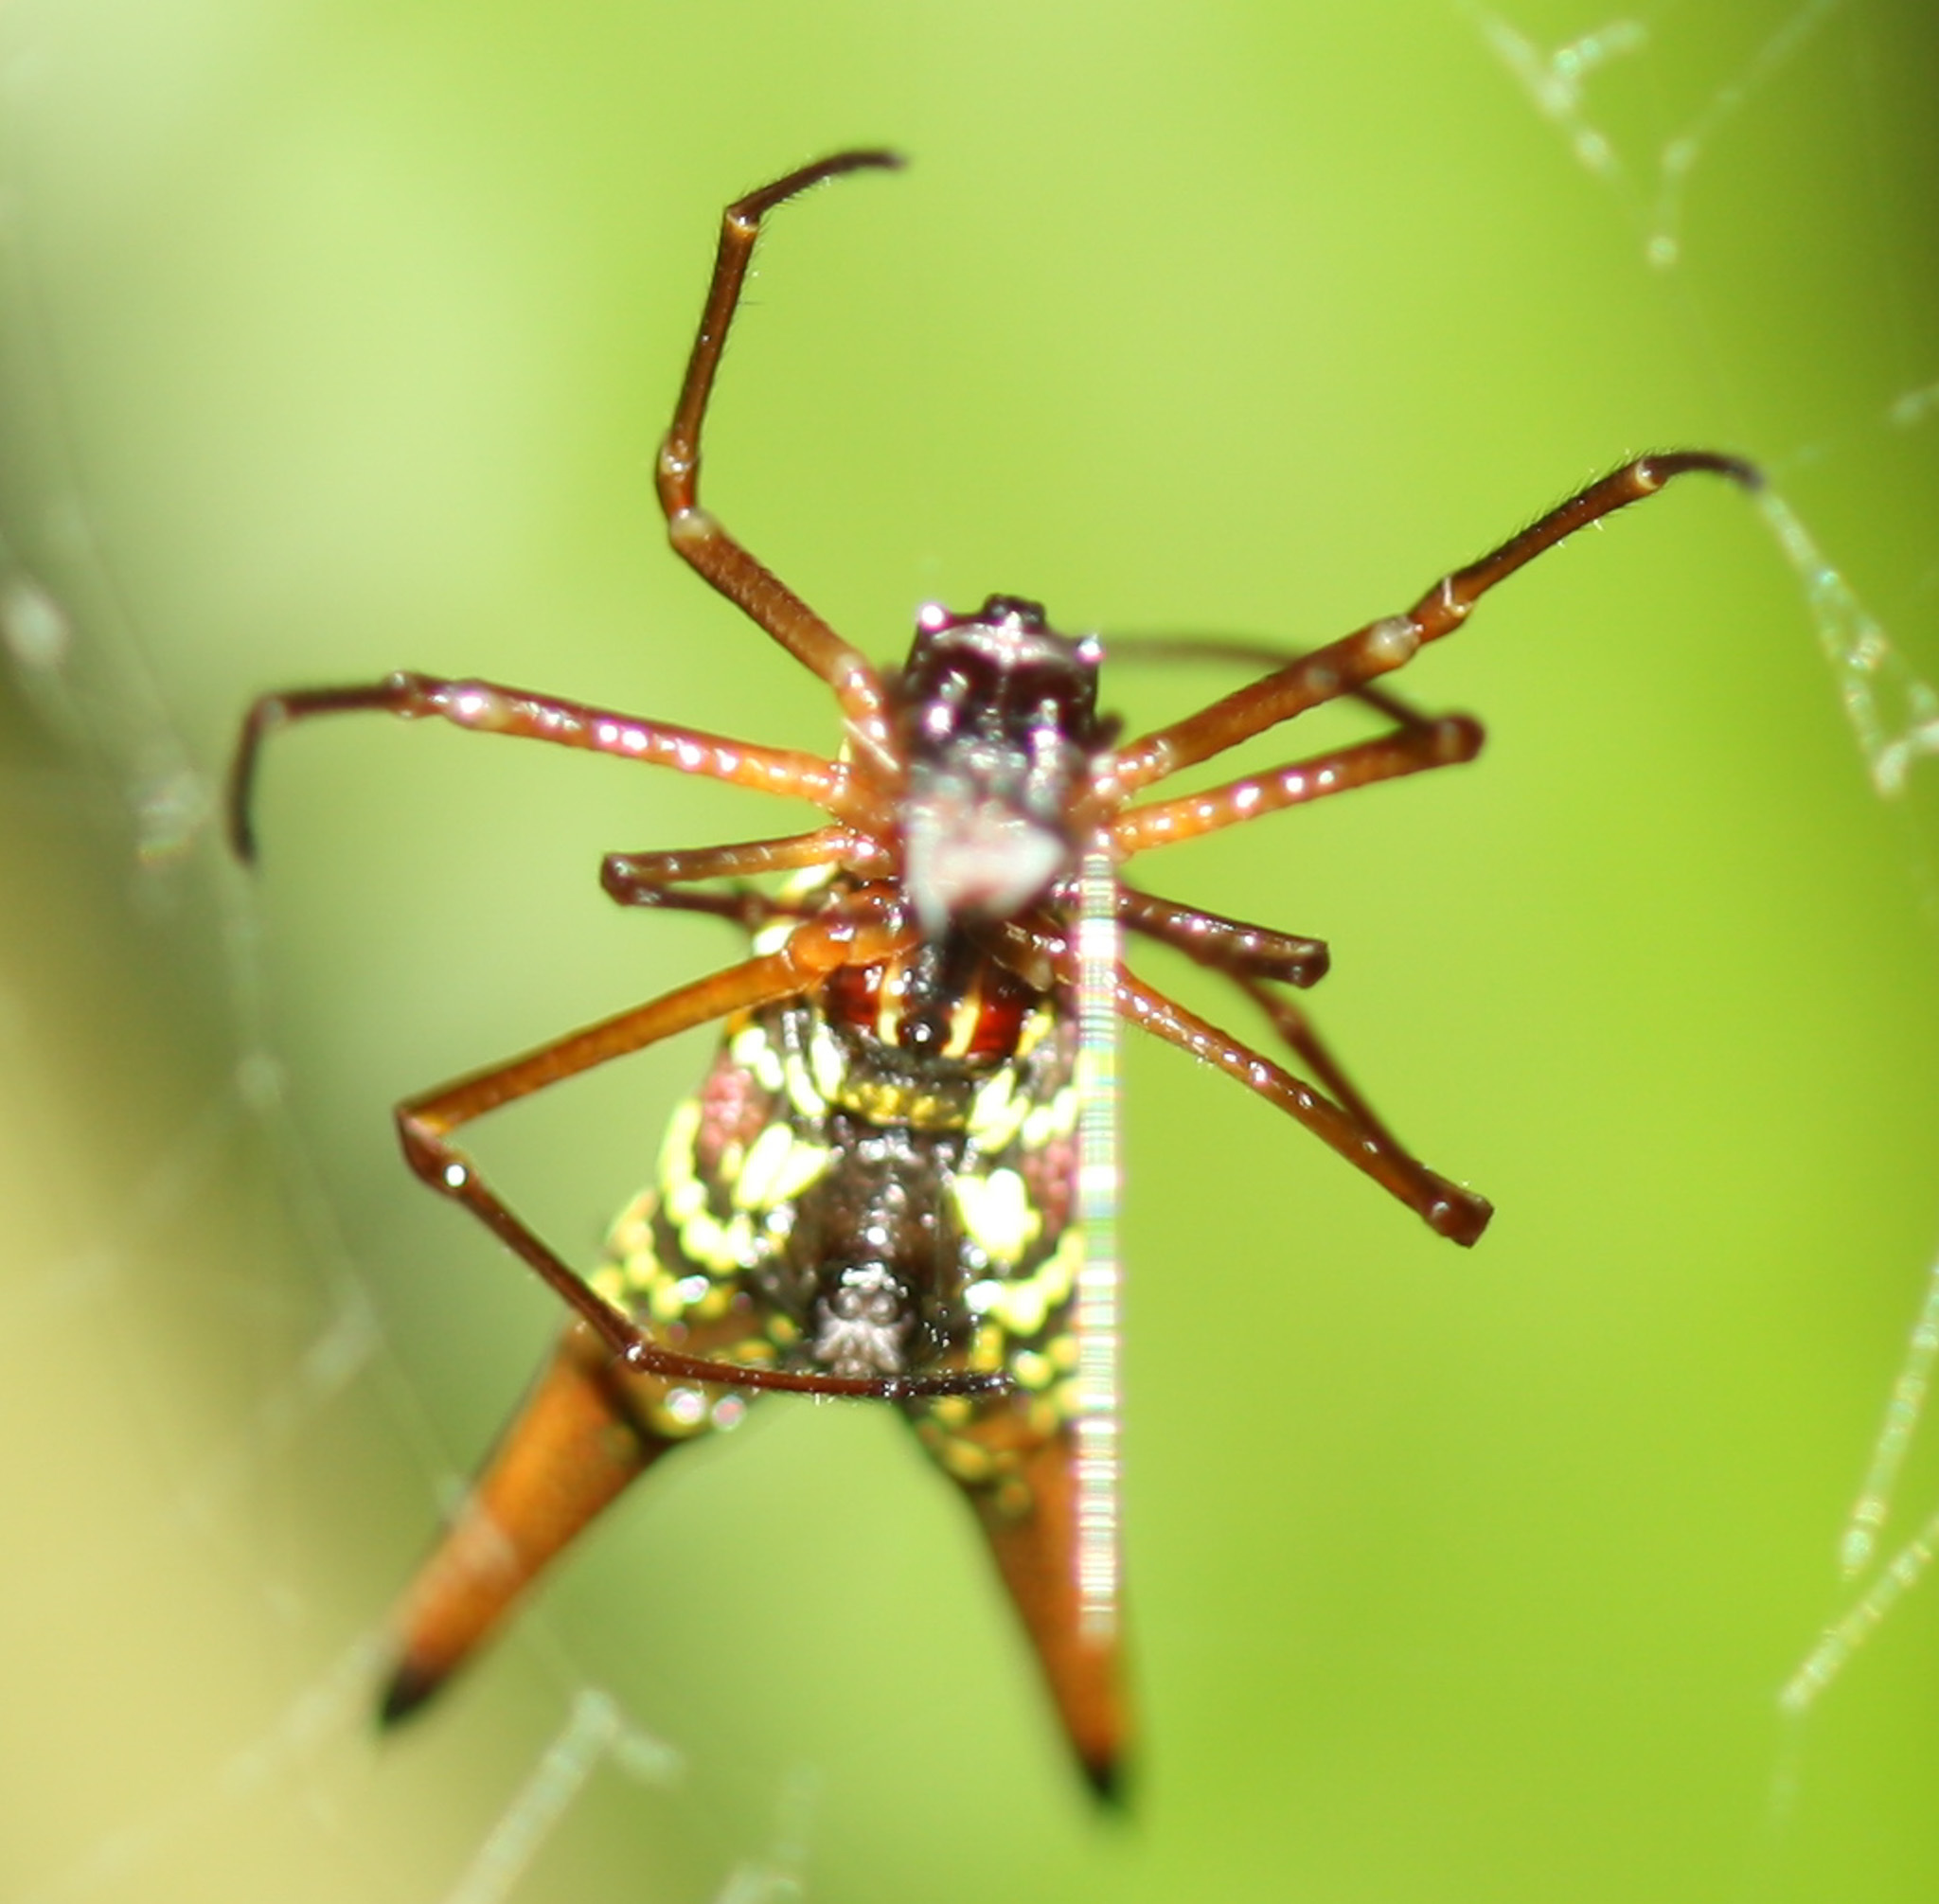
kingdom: Animalia
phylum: Arthropoda
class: Arachnida
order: Araneae
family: Araneidae
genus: Micrathena
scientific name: Micrathena brevipes
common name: Orb weavers
